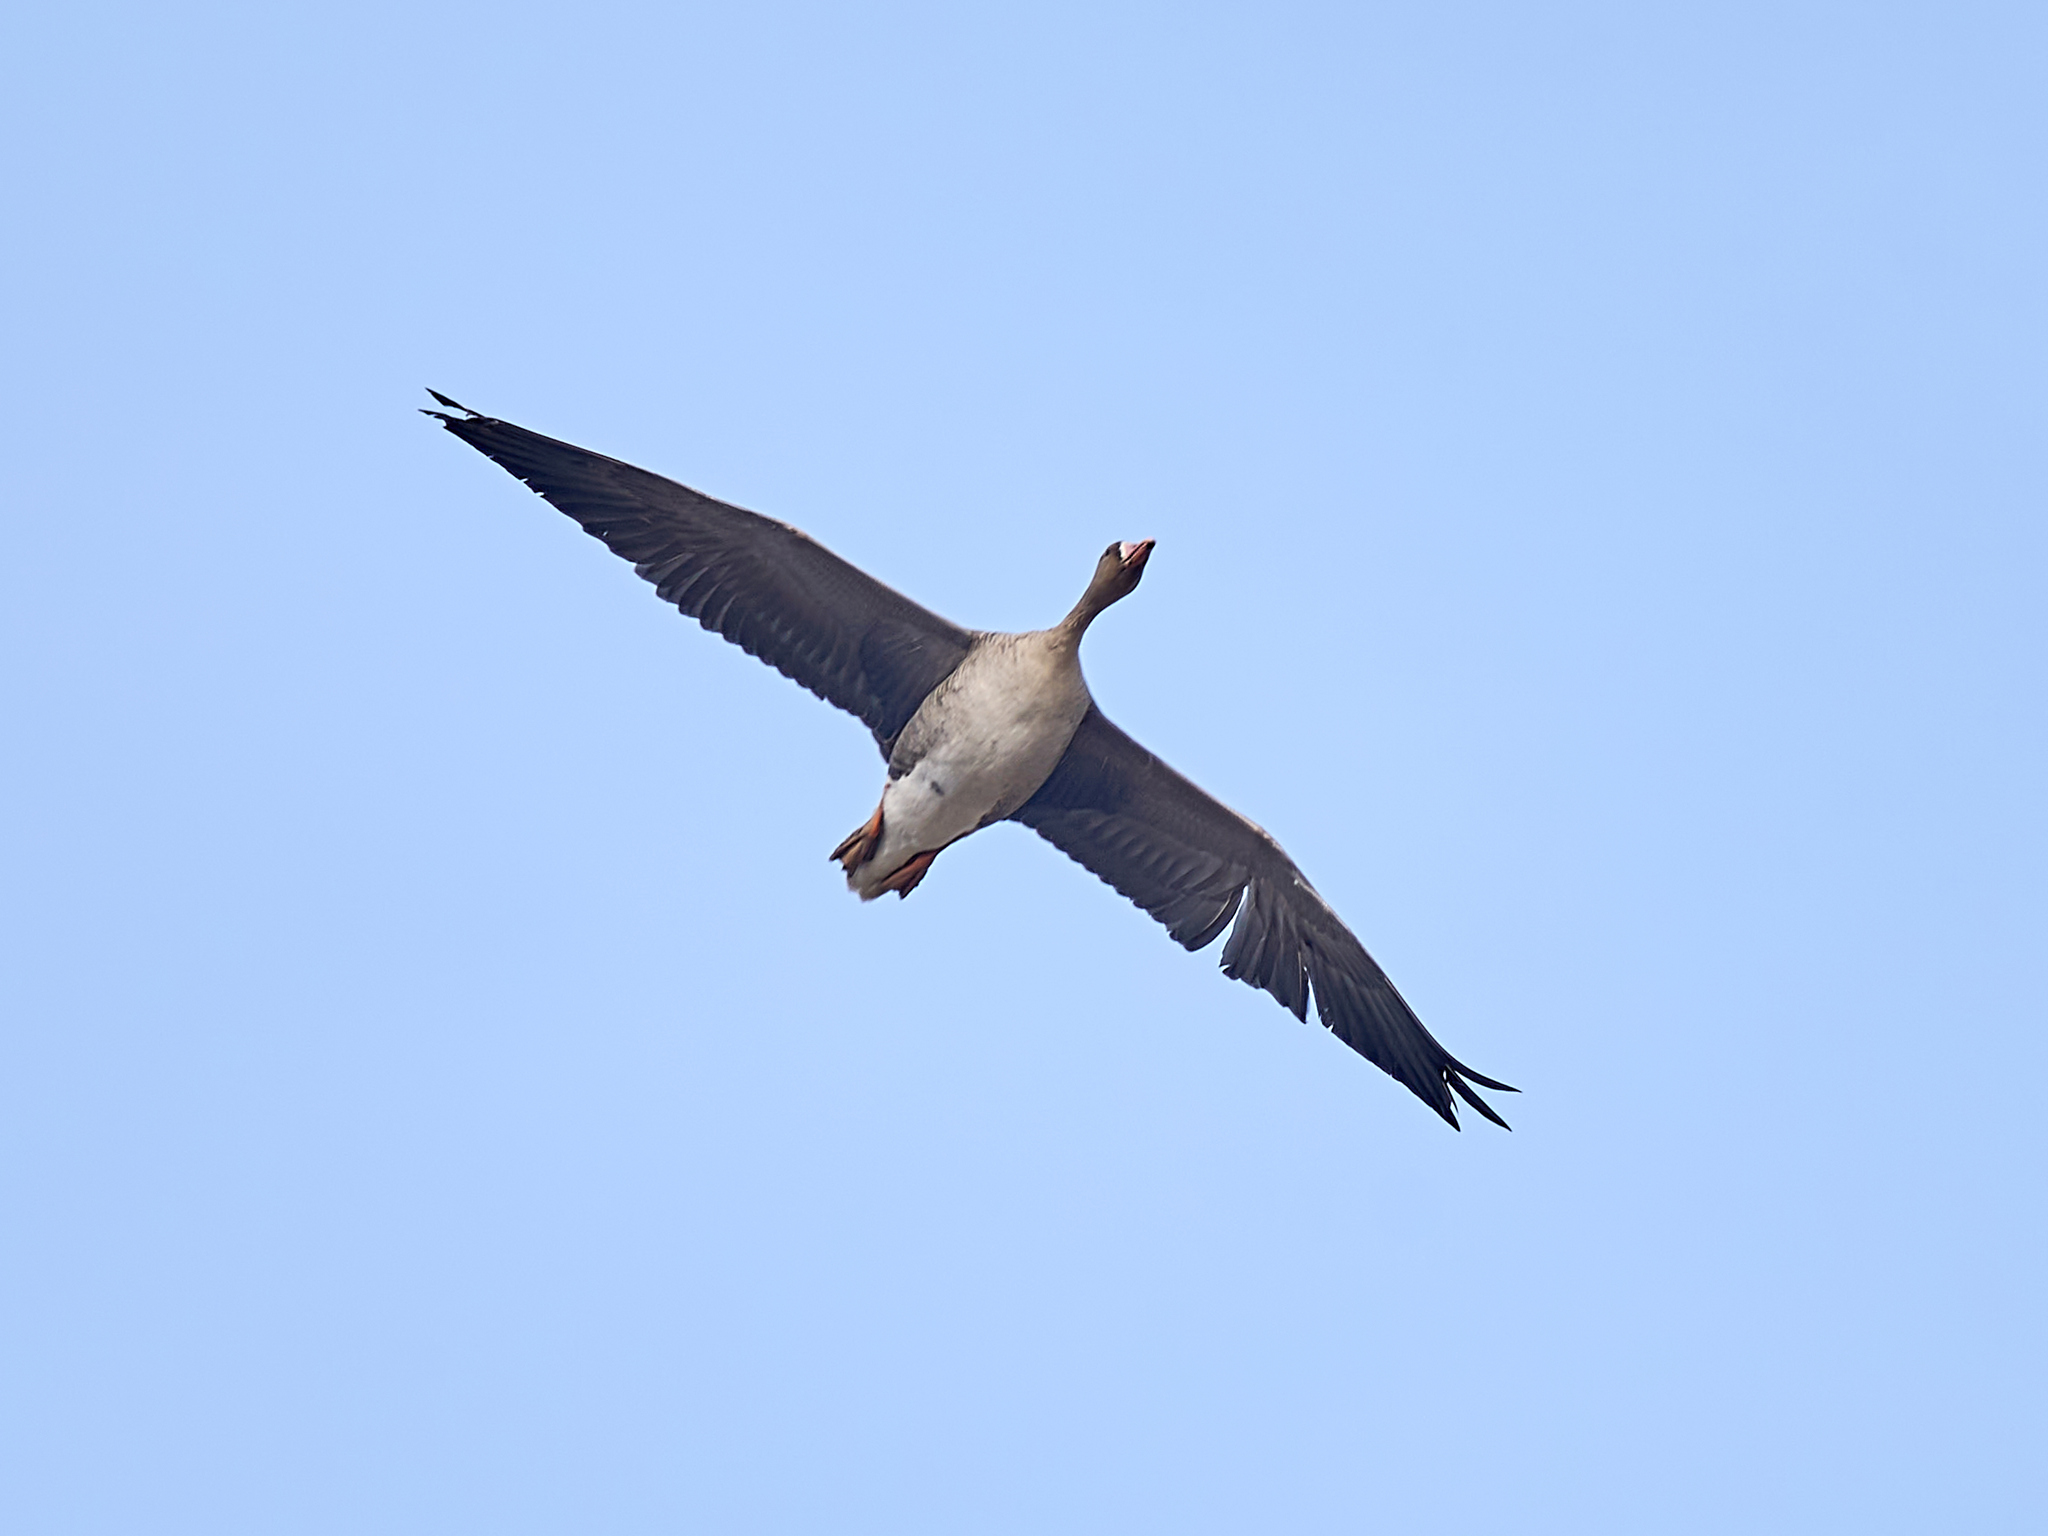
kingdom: Animalia
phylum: Chordata
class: Aves
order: Anseriformes
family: Anatidae
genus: Anser
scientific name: Anser albifrons
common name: Greater white-fronted goose
